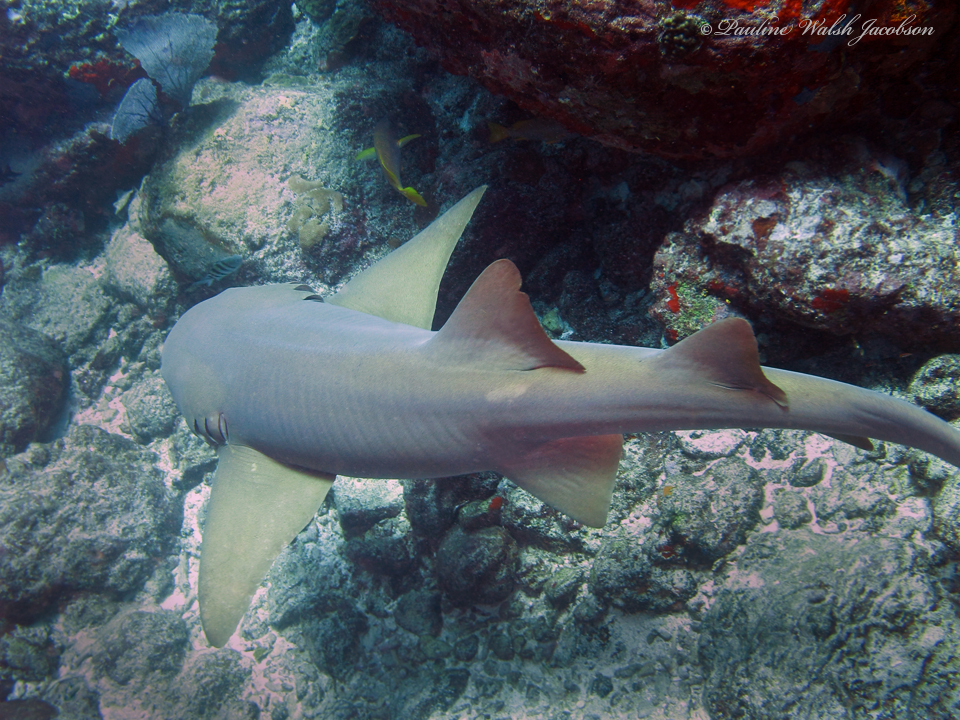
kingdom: Animalia
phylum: Chordata
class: Elasmobranchii
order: Orectolobiformes
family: Ginglymostomatidae
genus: Ginglymostoma
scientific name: Ginglymostoma cirratum
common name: Nurse shark
